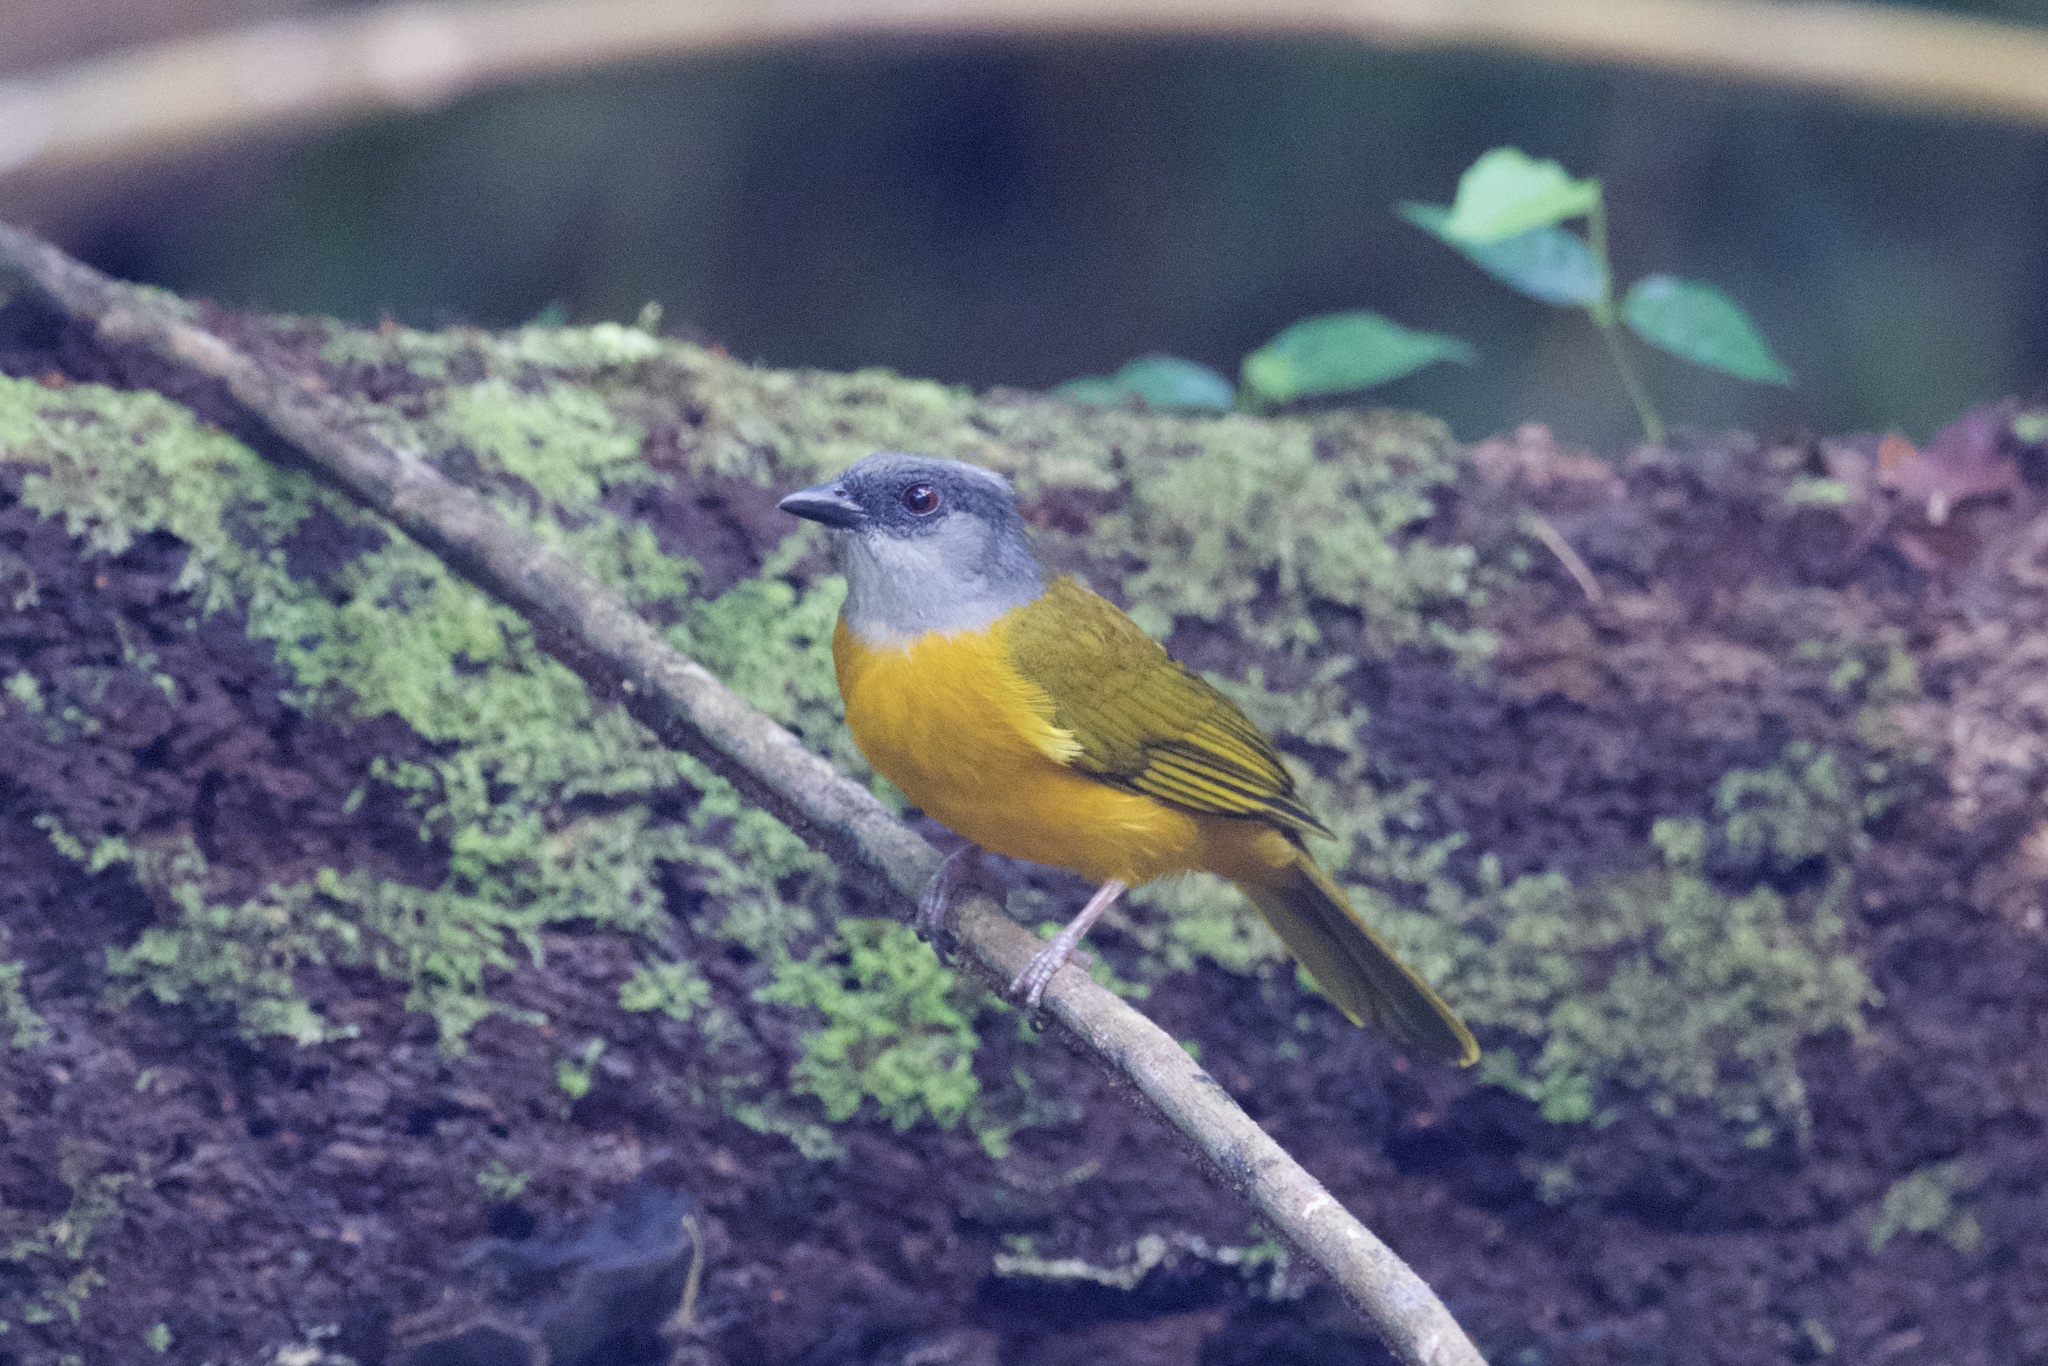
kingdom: Animalia
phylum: Chordata
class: Aves
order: Passeriformes
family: Thraupidae
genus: Eucometis
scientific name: Eucometis penicillata
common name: Grey-headed tanager
